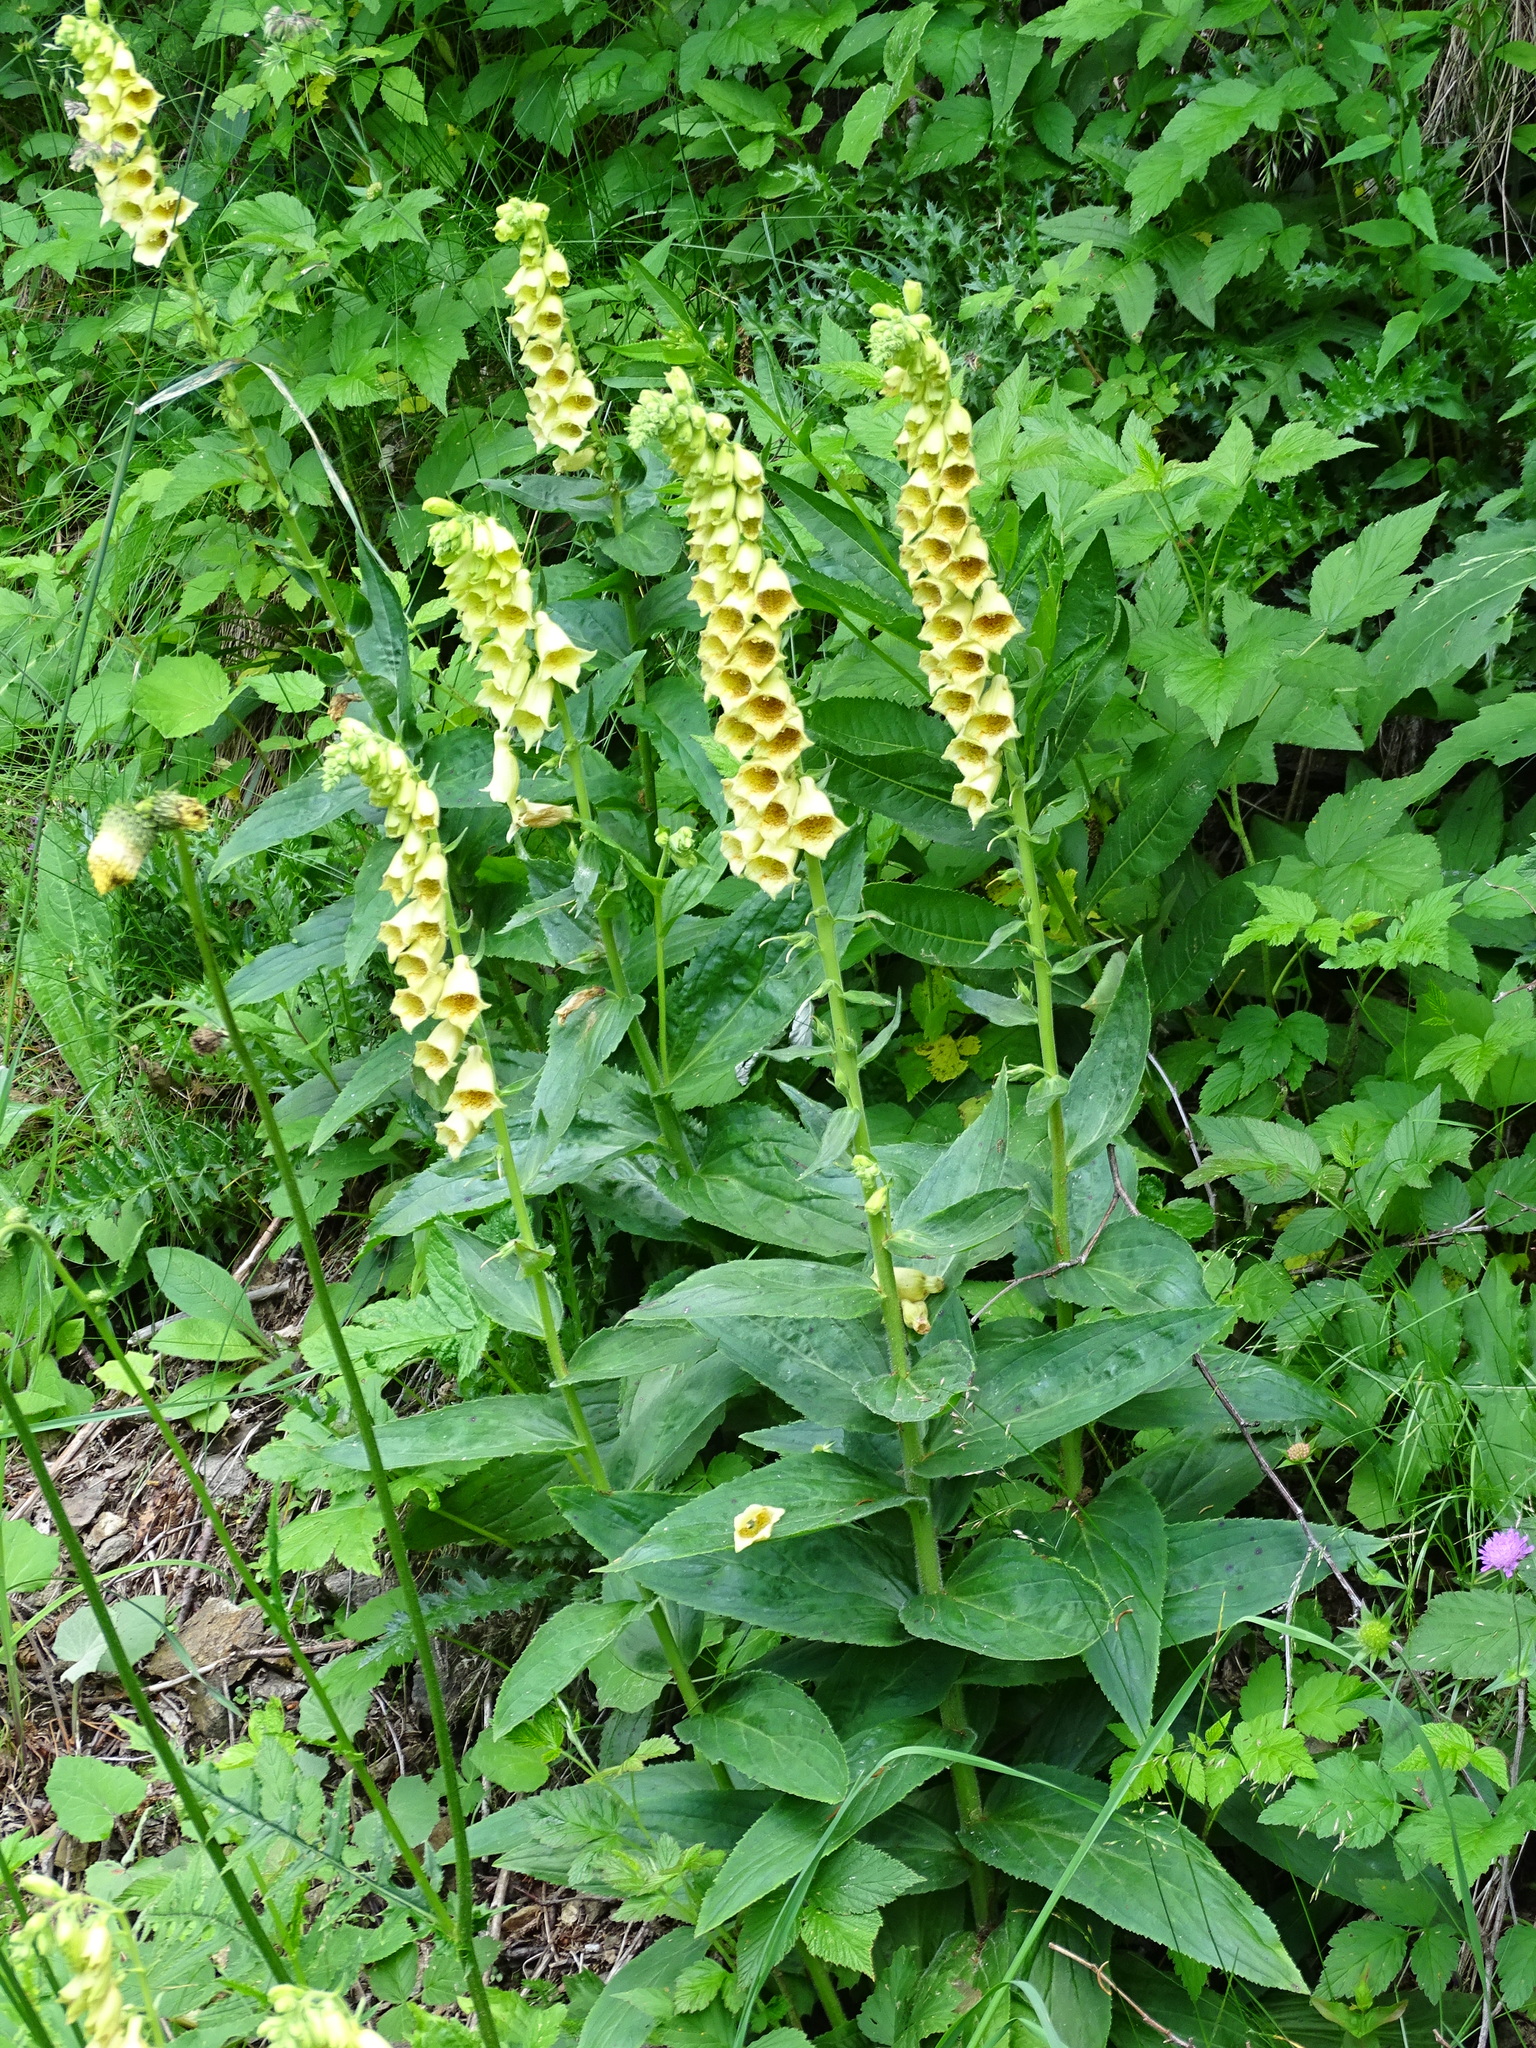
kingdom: Plantae
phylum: Tracheophyta
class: Magnoliopsida
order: Lamiales
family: Plantaginaceae
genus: Digitalis
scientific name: Digitalis grandiflora
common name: Yellow foxglove
